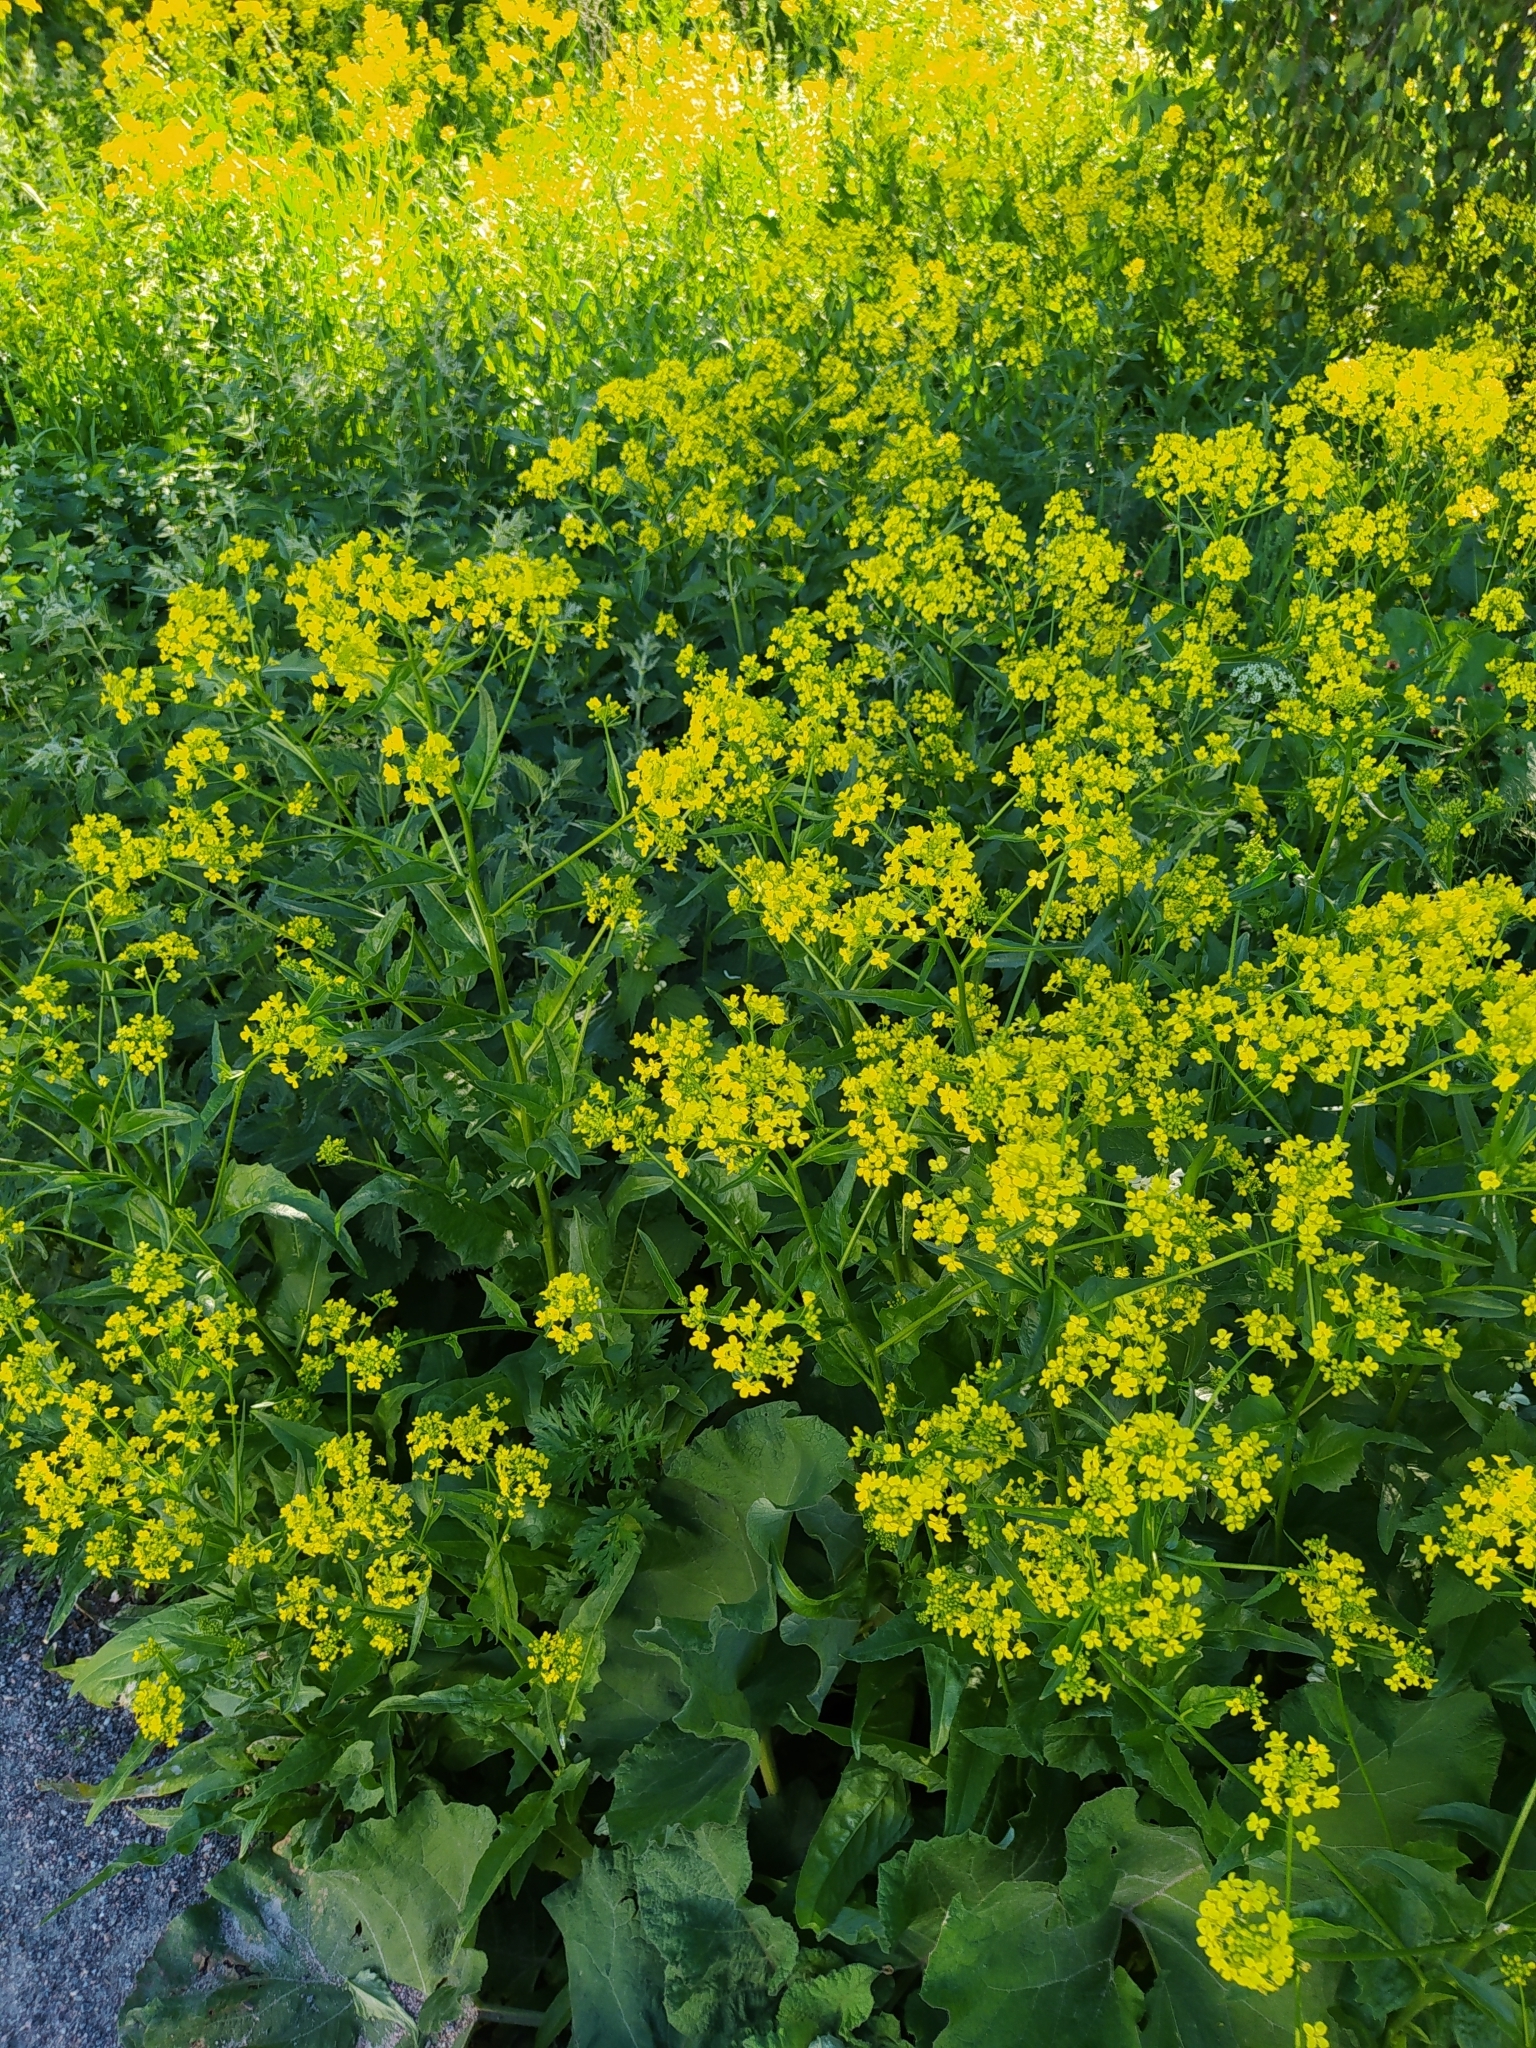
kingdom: Plantae
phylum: Tracheophyta
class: Magnoliopsida
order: Brassicales
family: Brassicaceae
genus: Bunias
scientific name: Bunias orientalis
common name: Warty-cabbage
